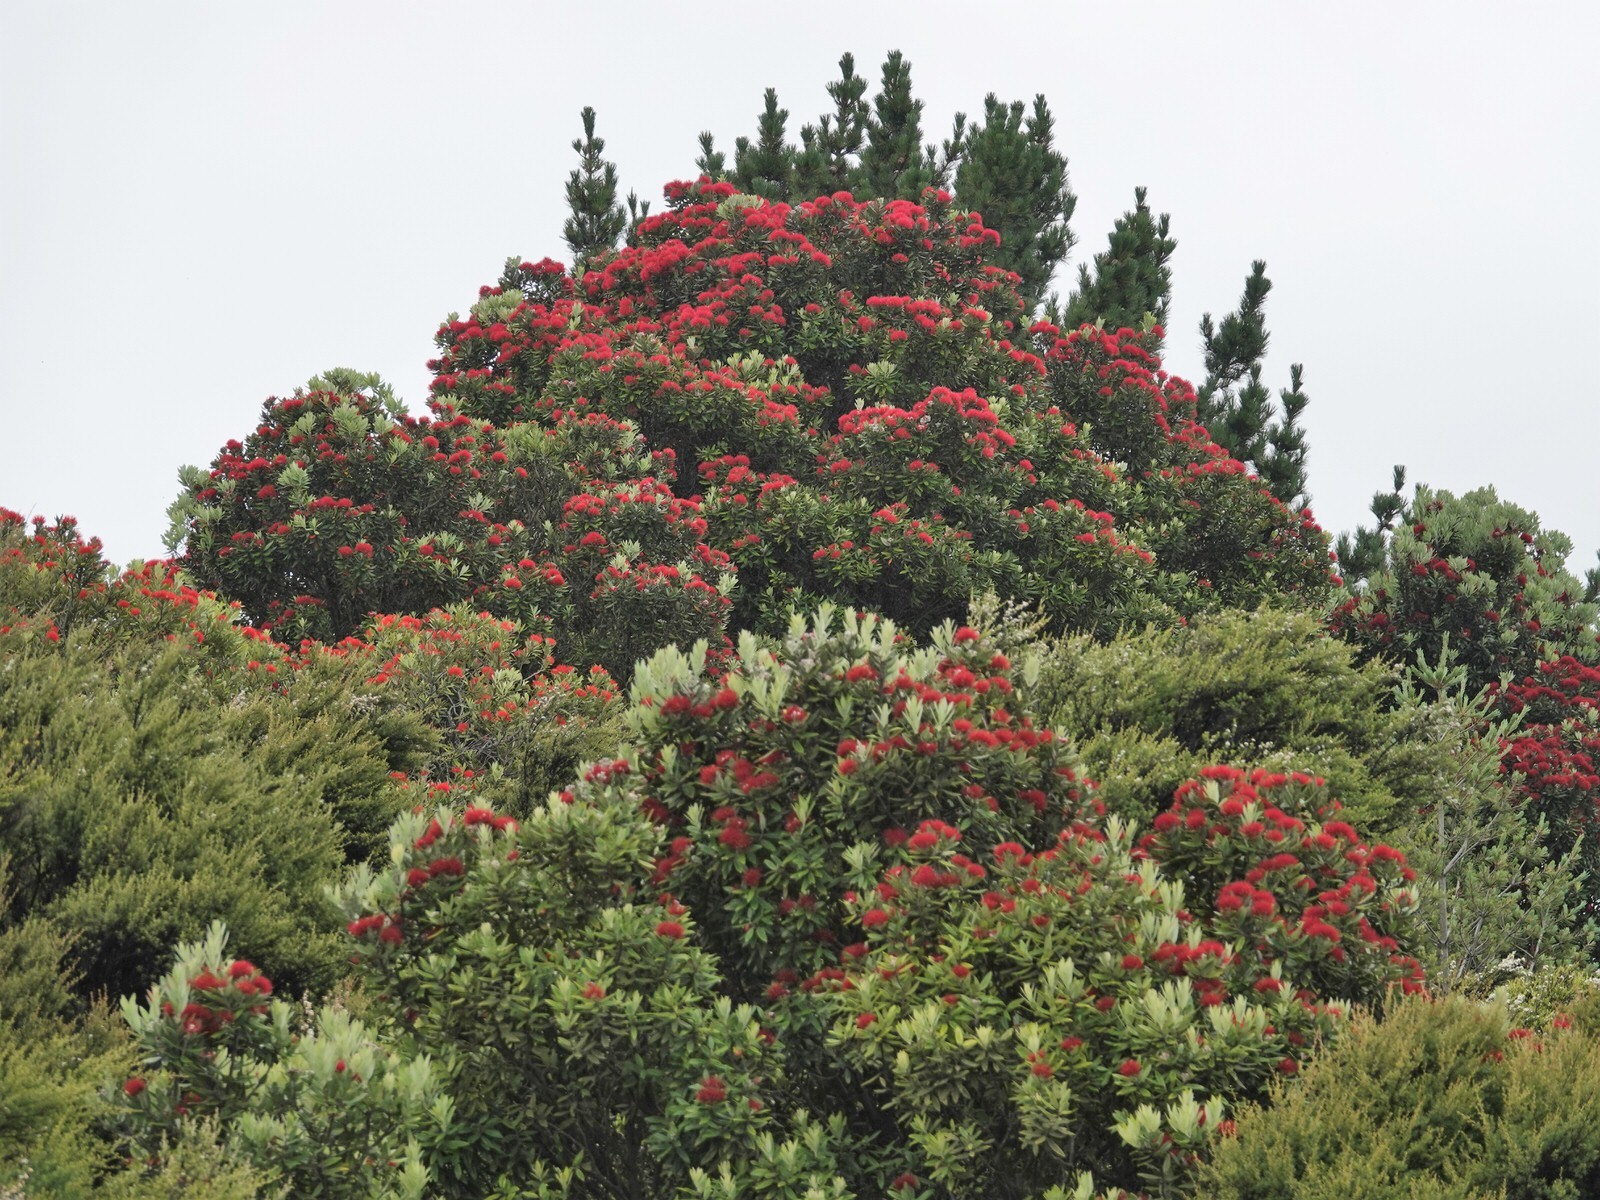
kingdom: Plantae
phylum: Tracheophyta
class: Magnoliopsida
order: Myrtales
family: Myrtaceae
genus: Metrosideros
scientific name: Metrosideros excelsa
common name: New zealand christmastree
